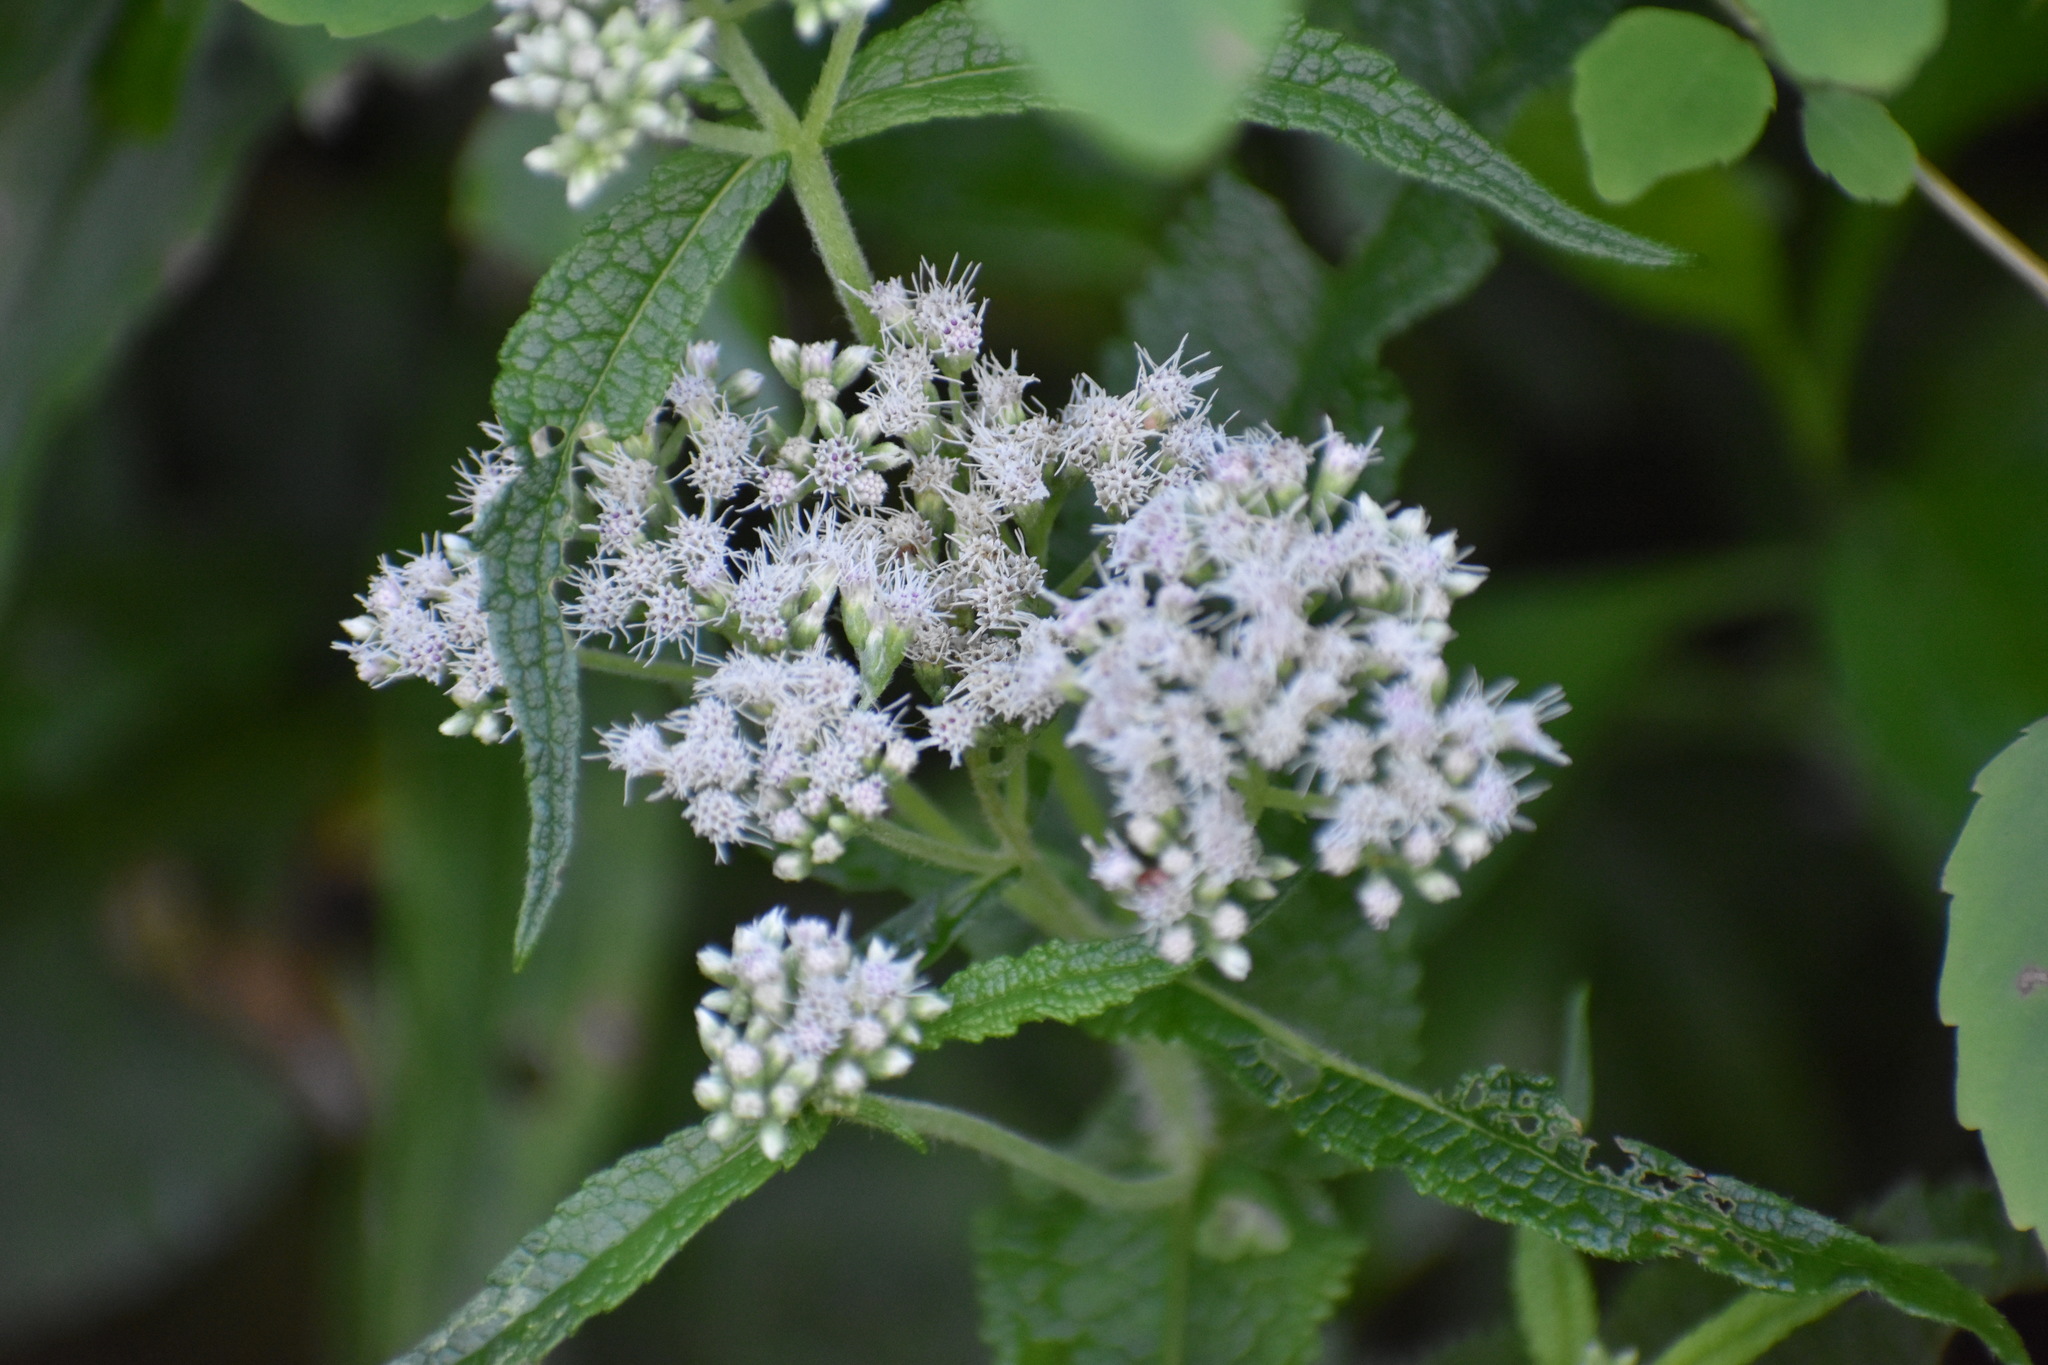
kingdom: Plantae
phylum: Tracheophyta
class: Magnoliopsida
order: Asterales
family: Asteraceae
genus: Eupatorium
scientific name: Eupatorium perfoliatum
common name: Boneset
